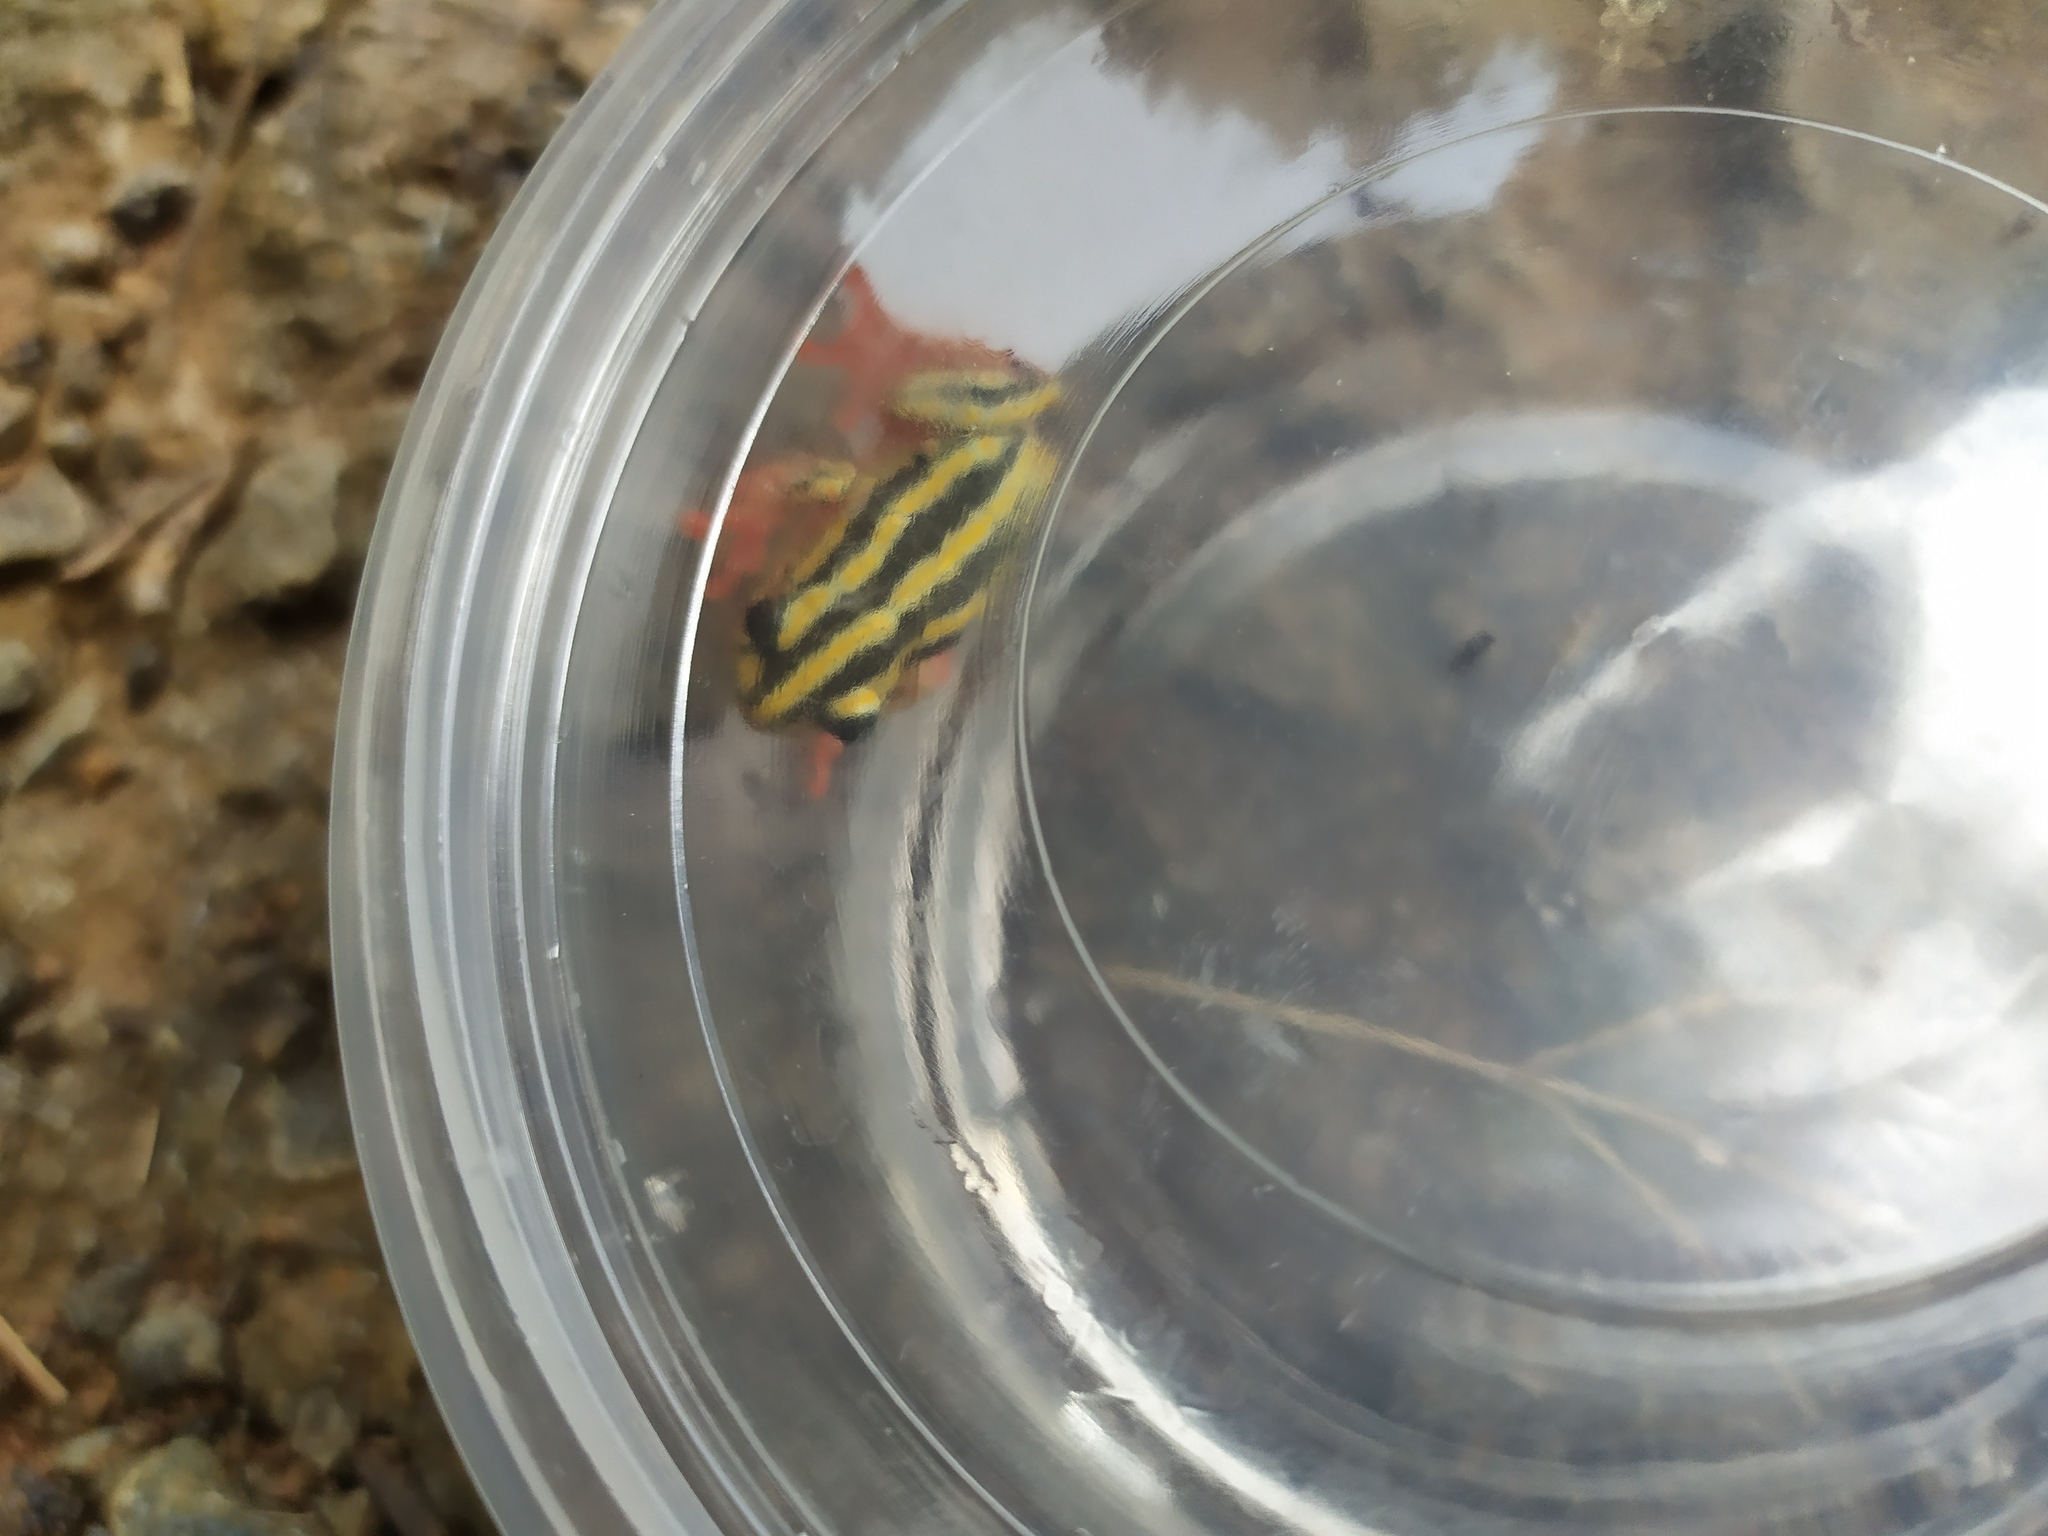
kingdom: Animalia
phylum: Chordata
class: Amphibia
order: Anura
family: Hyperoliidae
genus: Hyperolius
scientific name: Hyperolius marmoratus
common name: Painted reed frog
